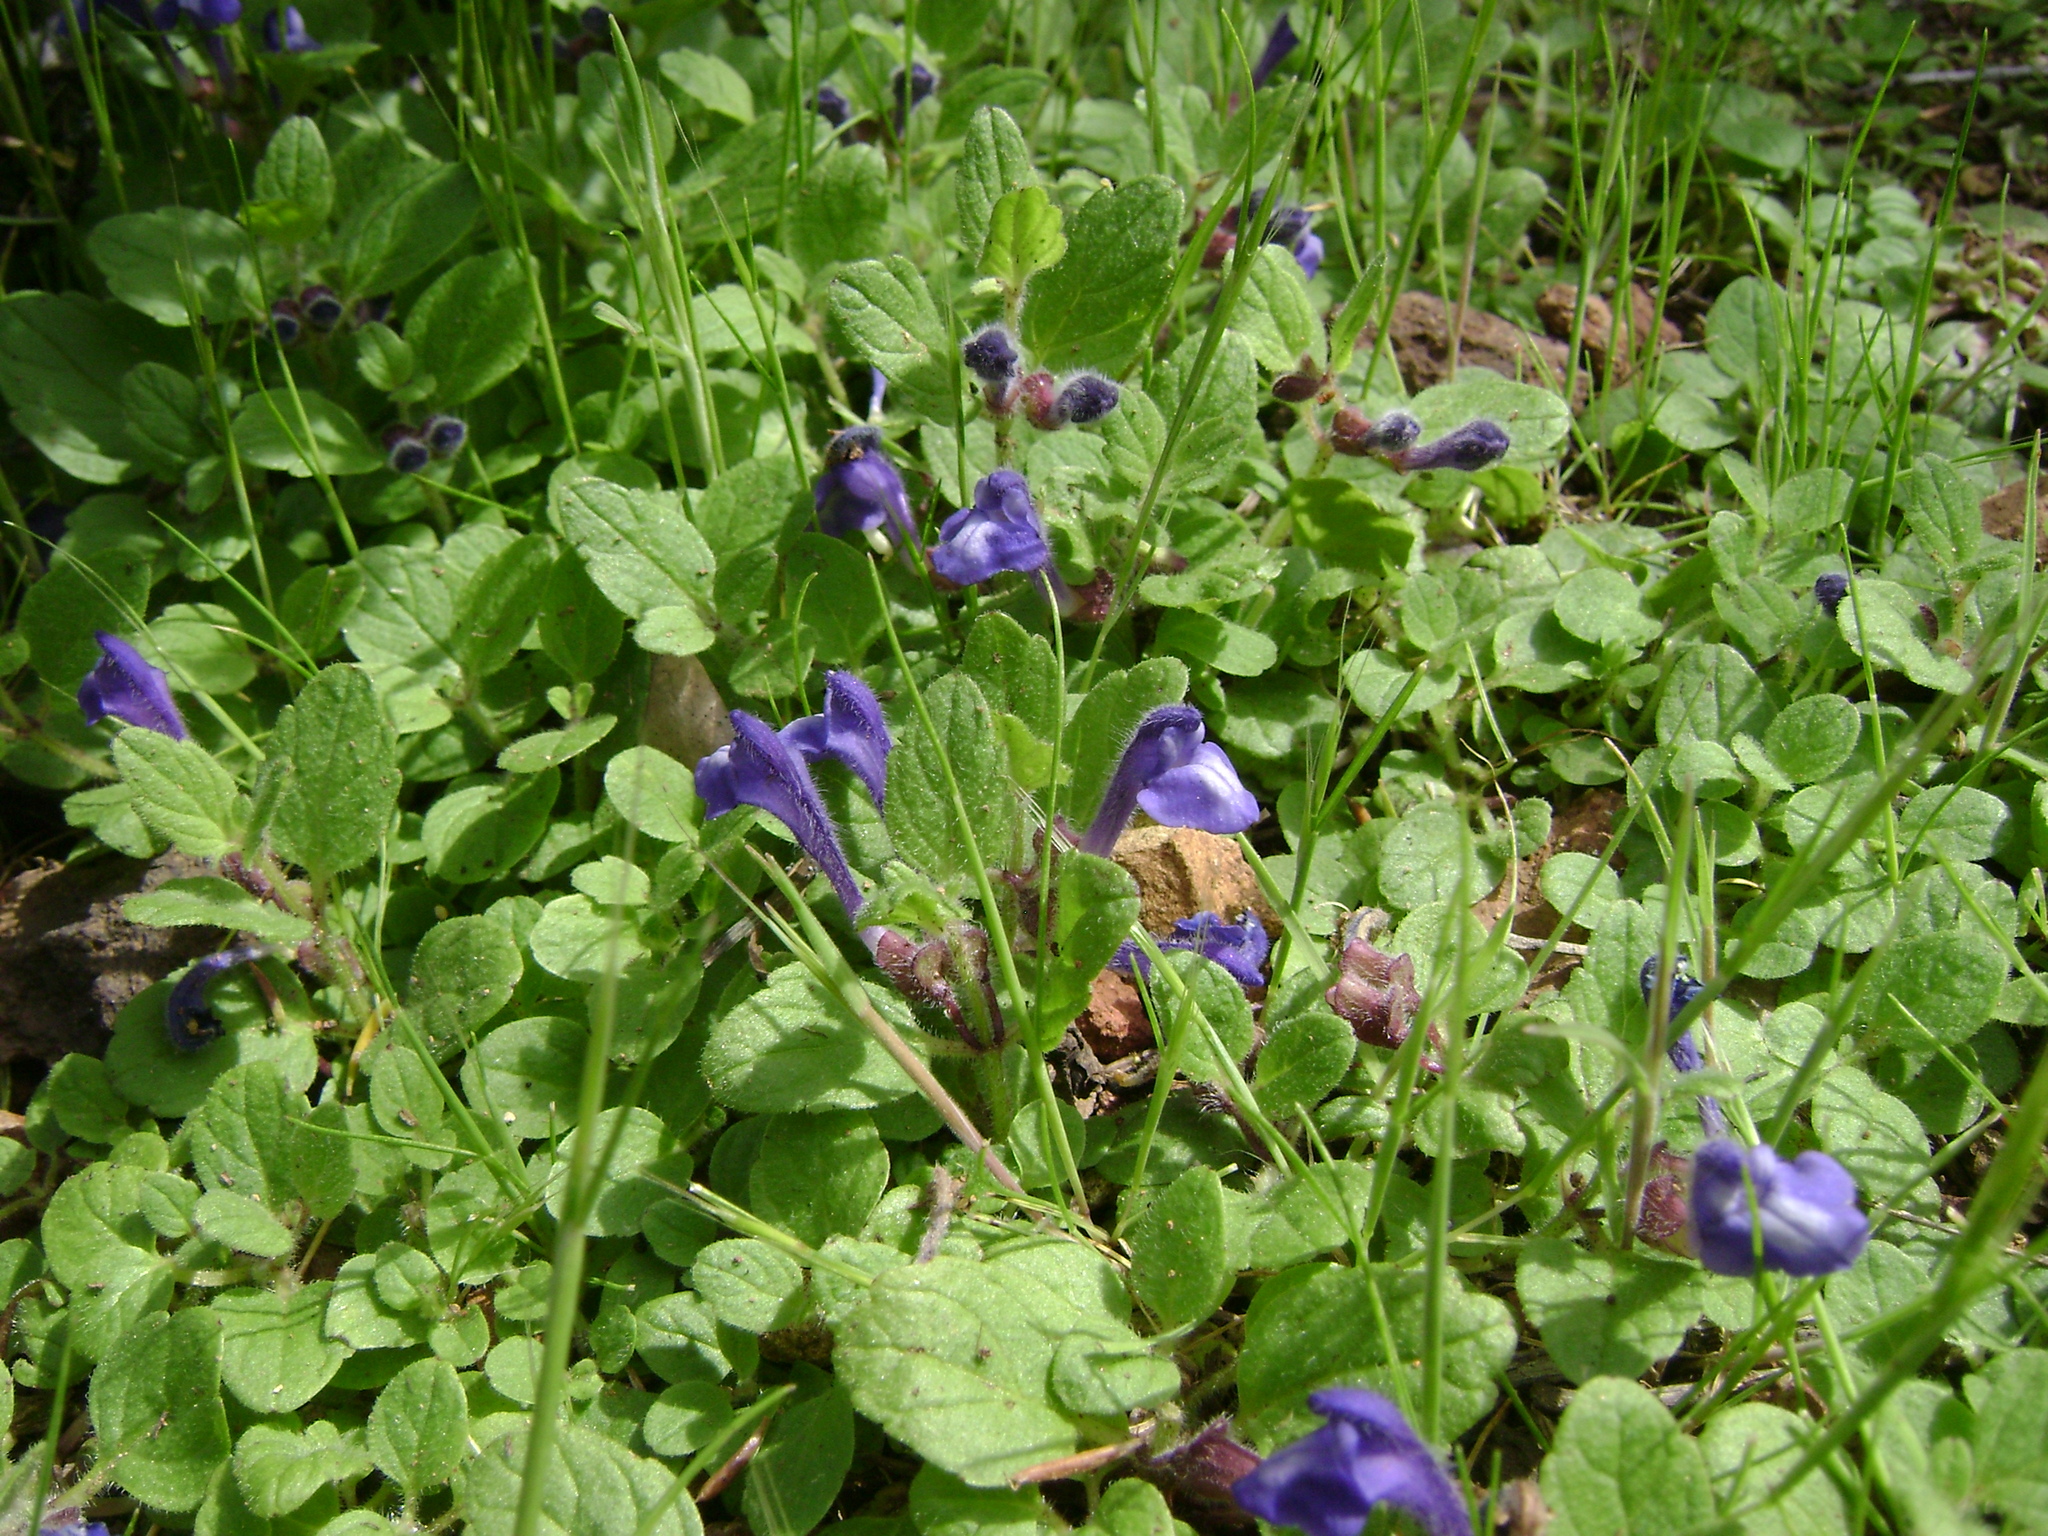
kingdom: Plantae
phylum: Tracheophyta
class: Magnoliopsida
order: Lamiales
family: Lamiaceae
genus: Scutellaria
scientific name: Scutellaria tuberosa
